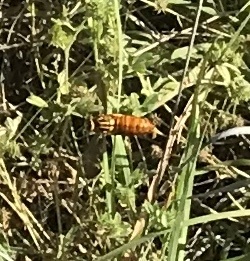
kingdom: Animalia
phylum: Arthropoda
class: Insecta
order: Hymenoptera
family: Vespidae
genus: Vespula
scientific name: Vespula squamosa
